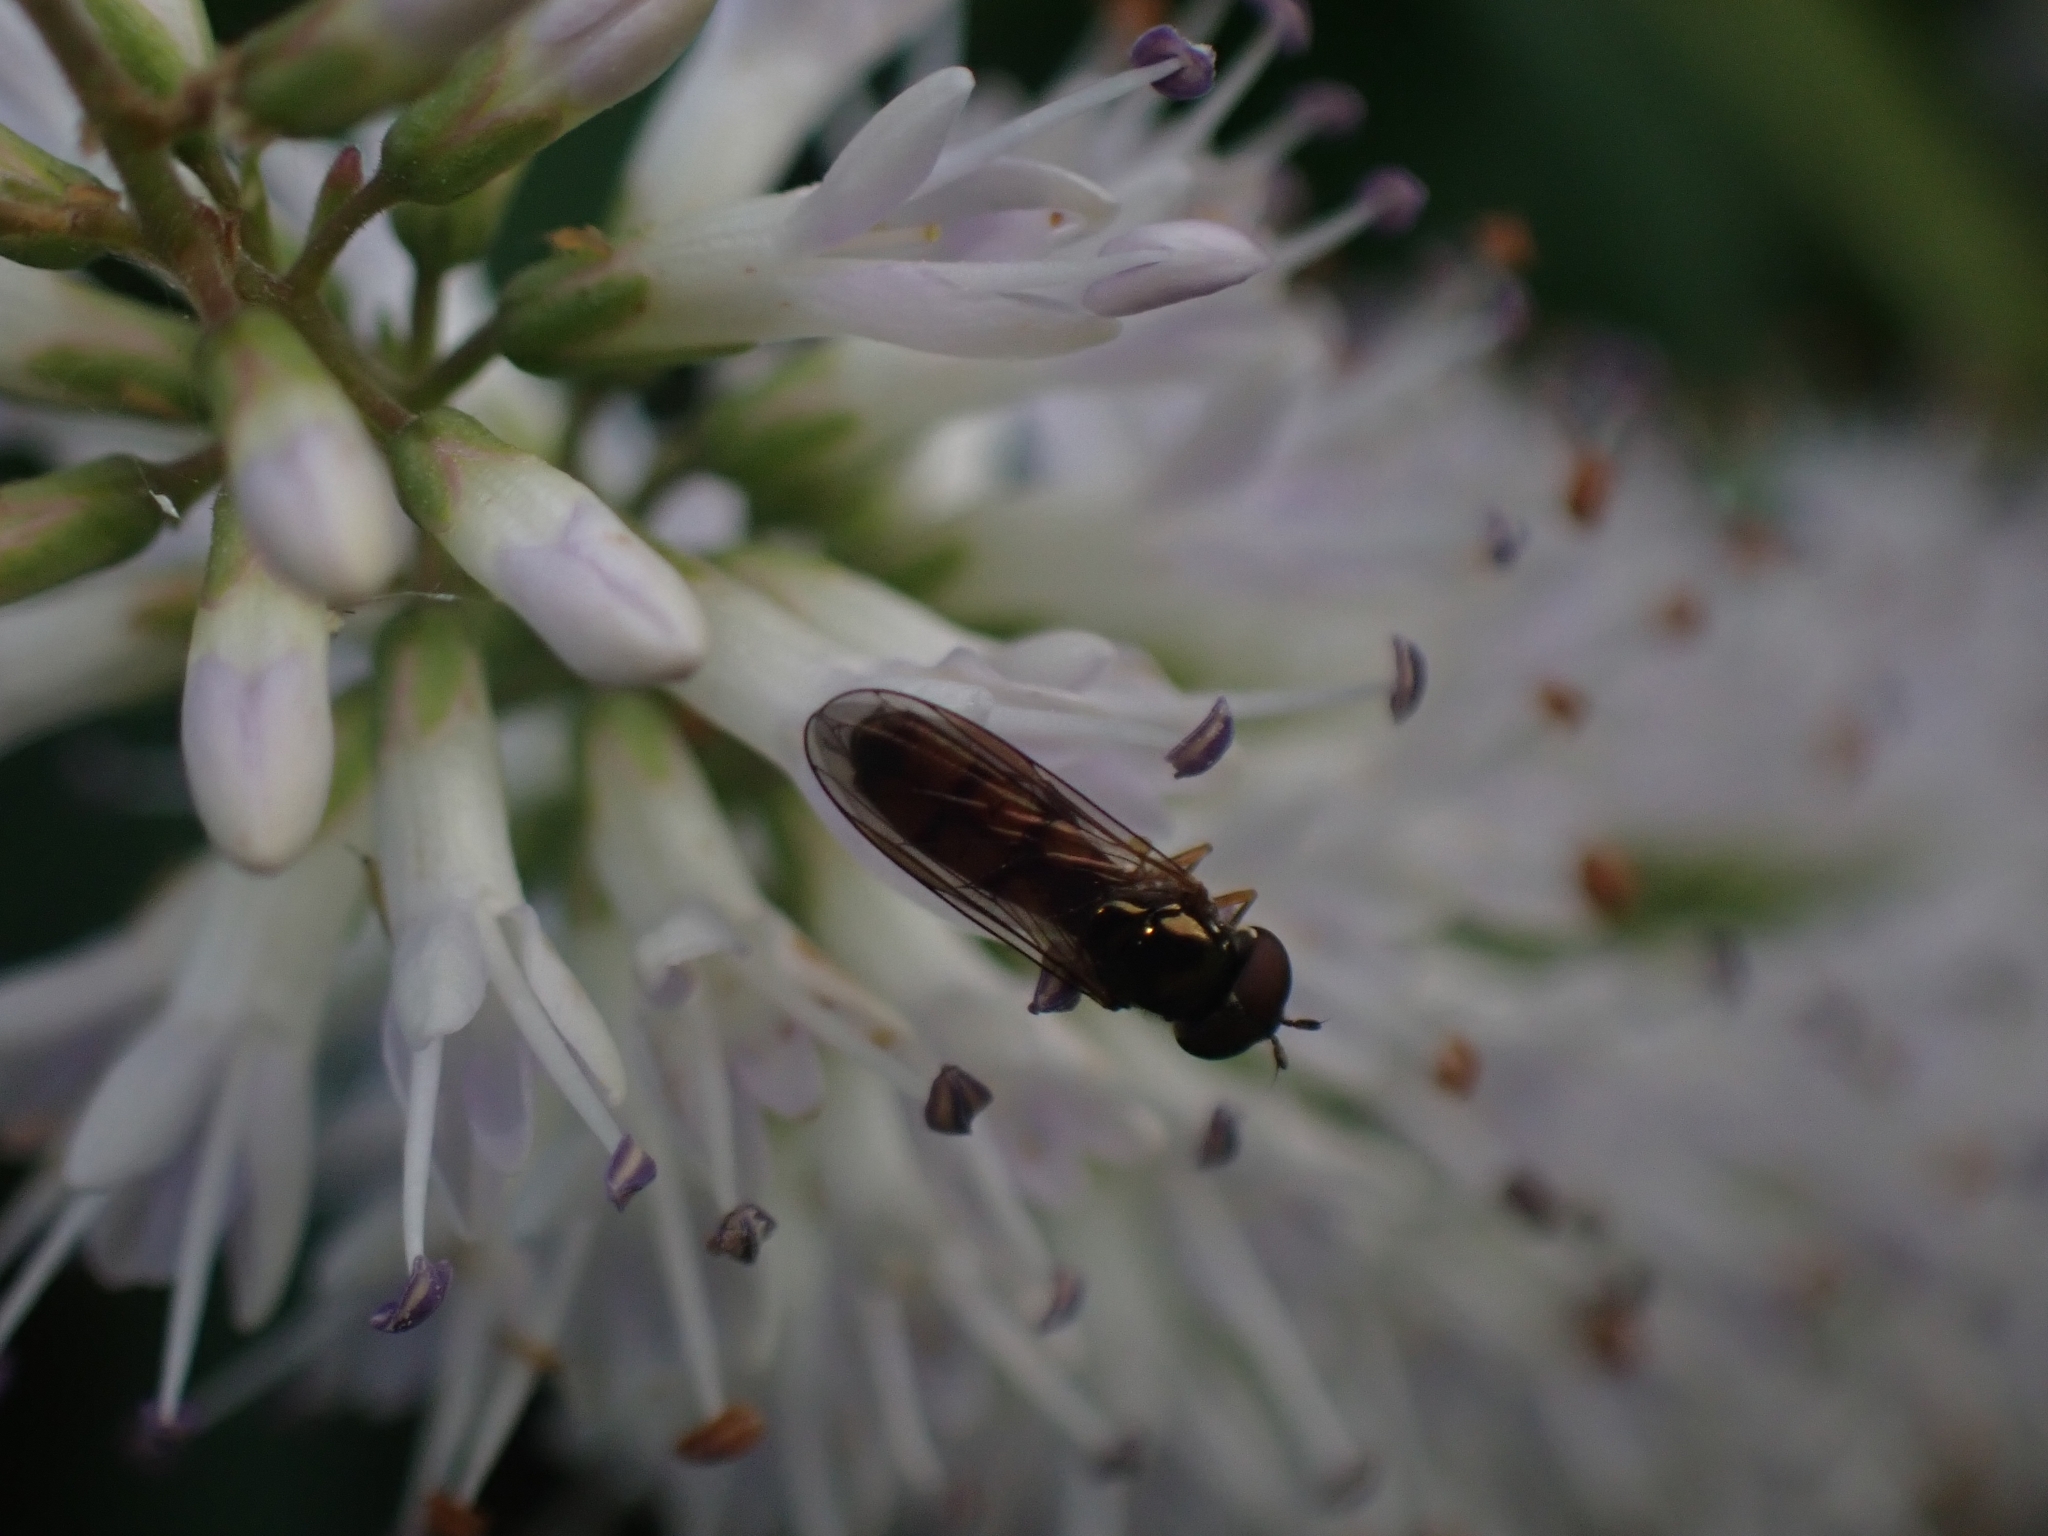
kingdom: Animalia
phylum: Arthropoda
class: Insecta
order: Diptera
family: Syrphidae
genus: Melanostoma
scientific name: Melanostoma fasciatum
